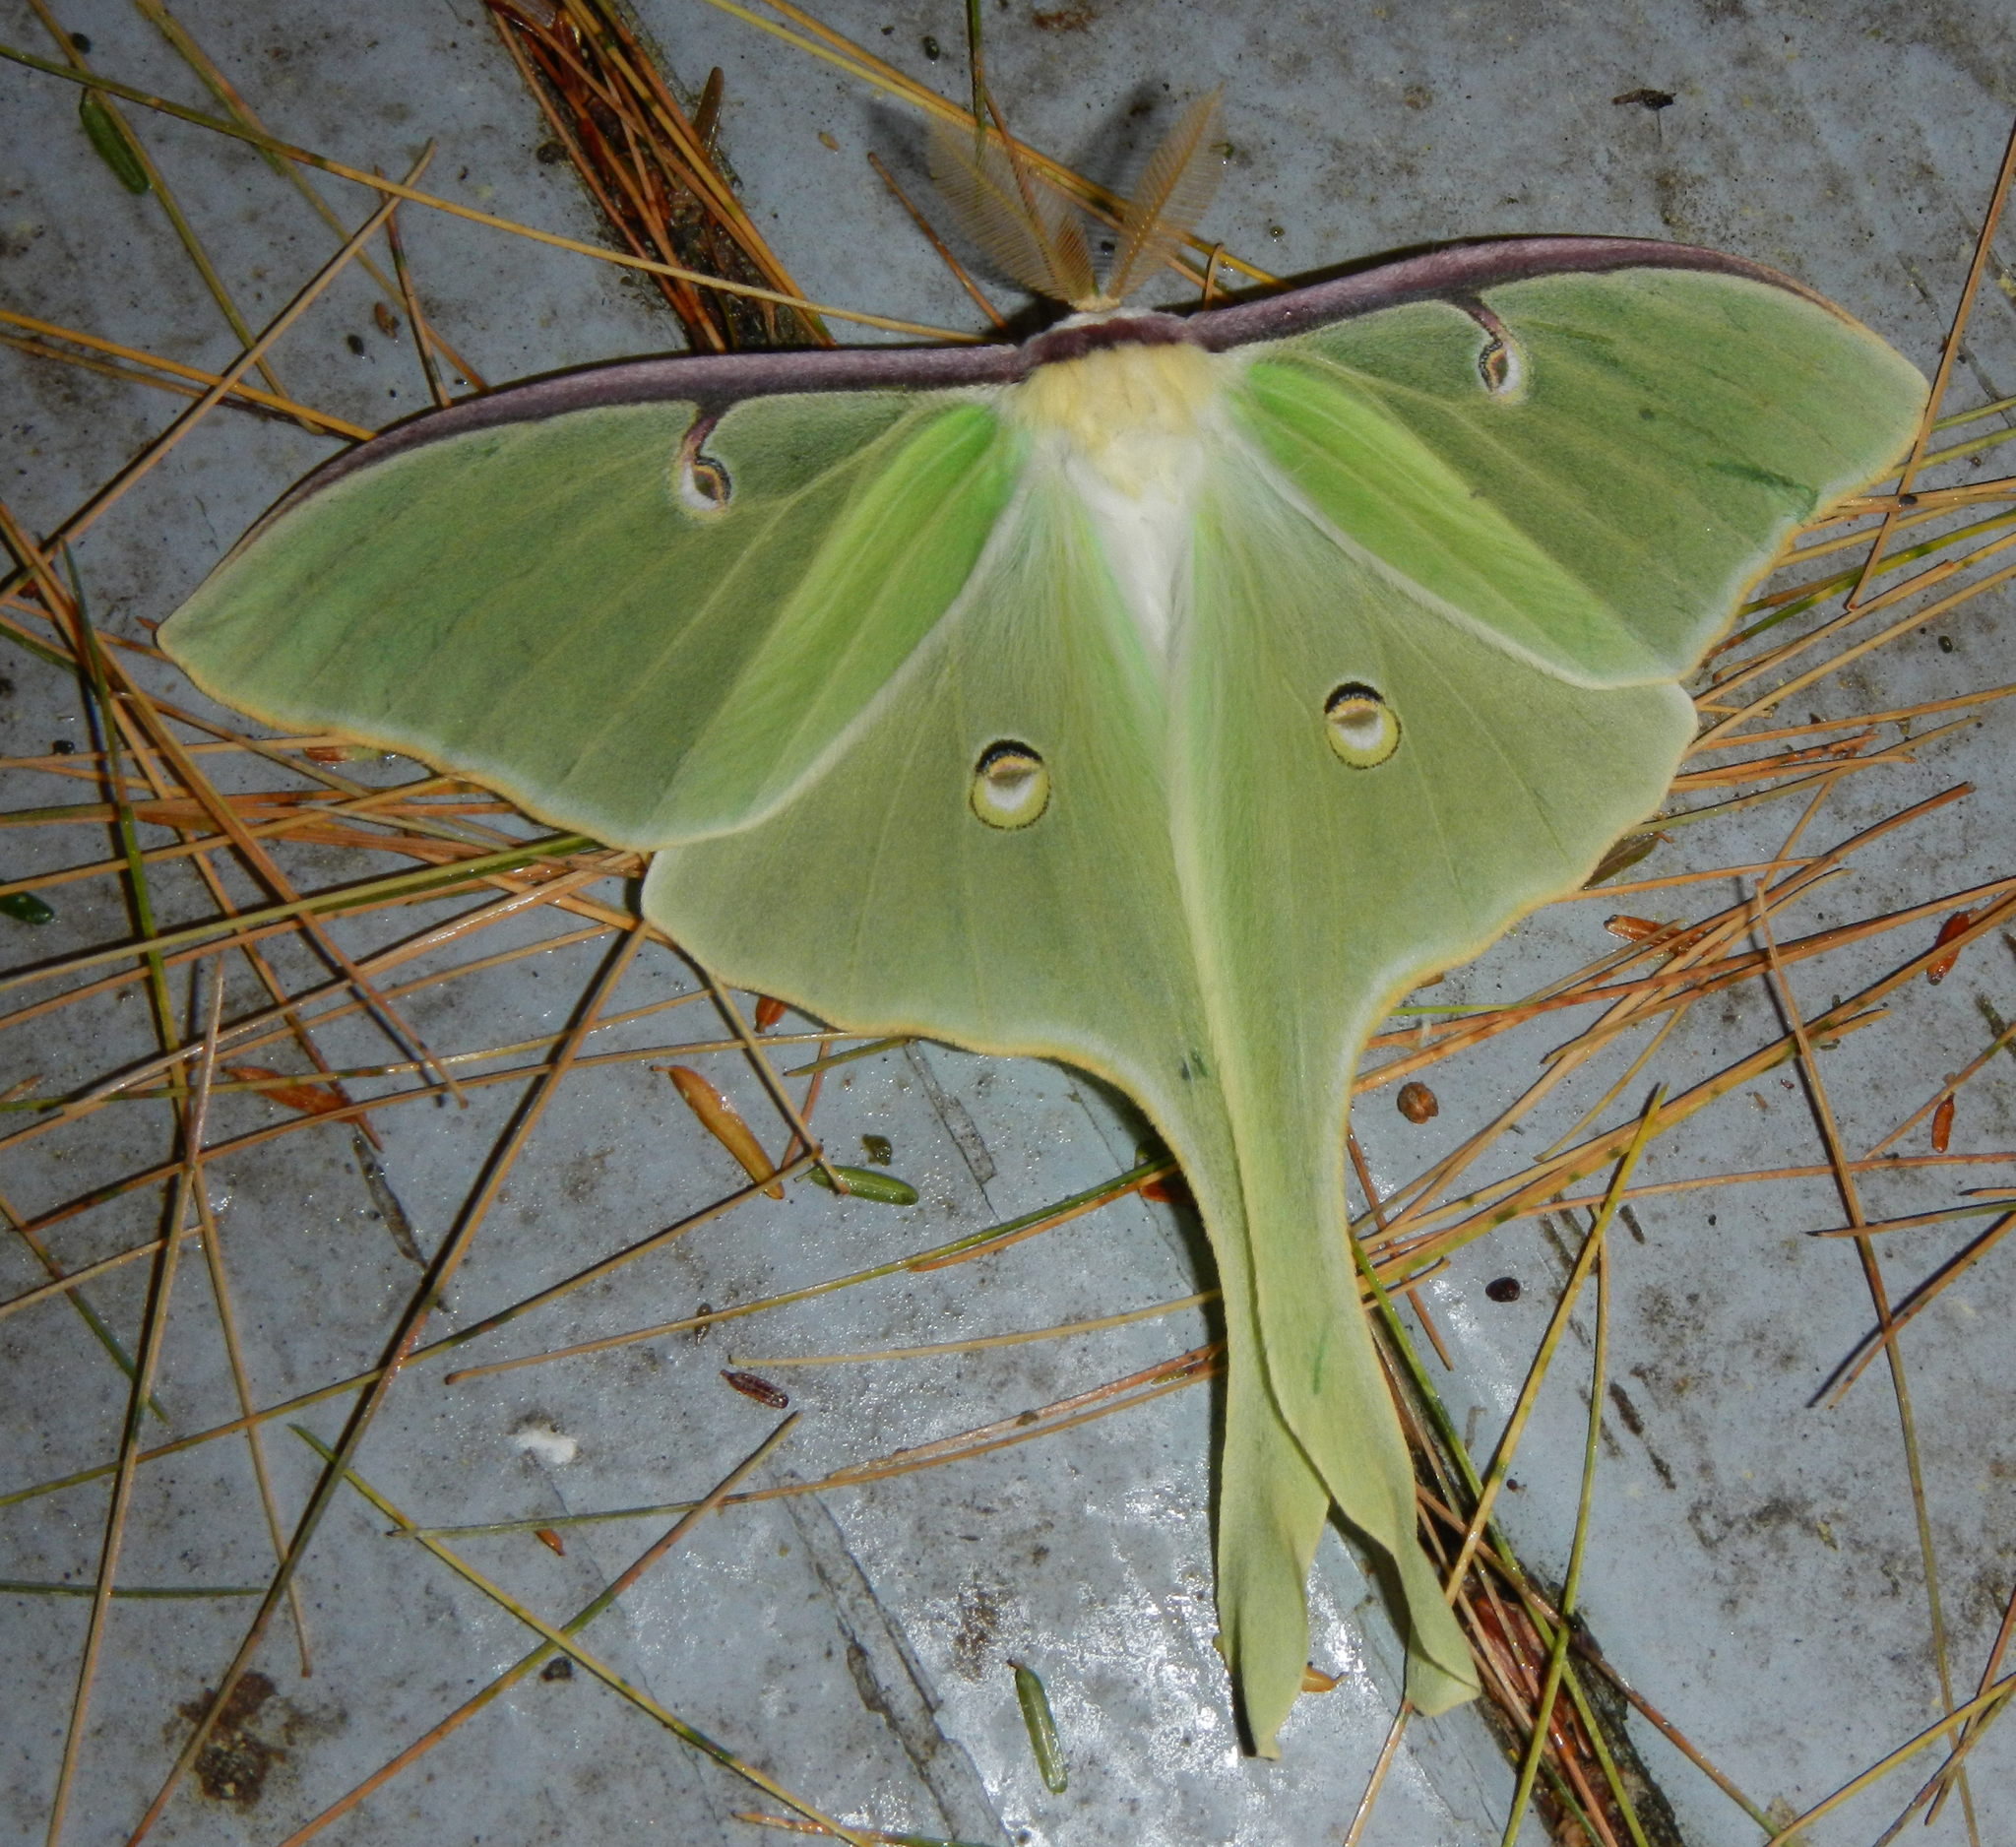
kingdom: Animalia
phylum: Arthropoda
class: Insecta
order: Lepidoptera
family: Saturniidae
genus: Actias
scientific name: Actias luna
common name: Luna moth
